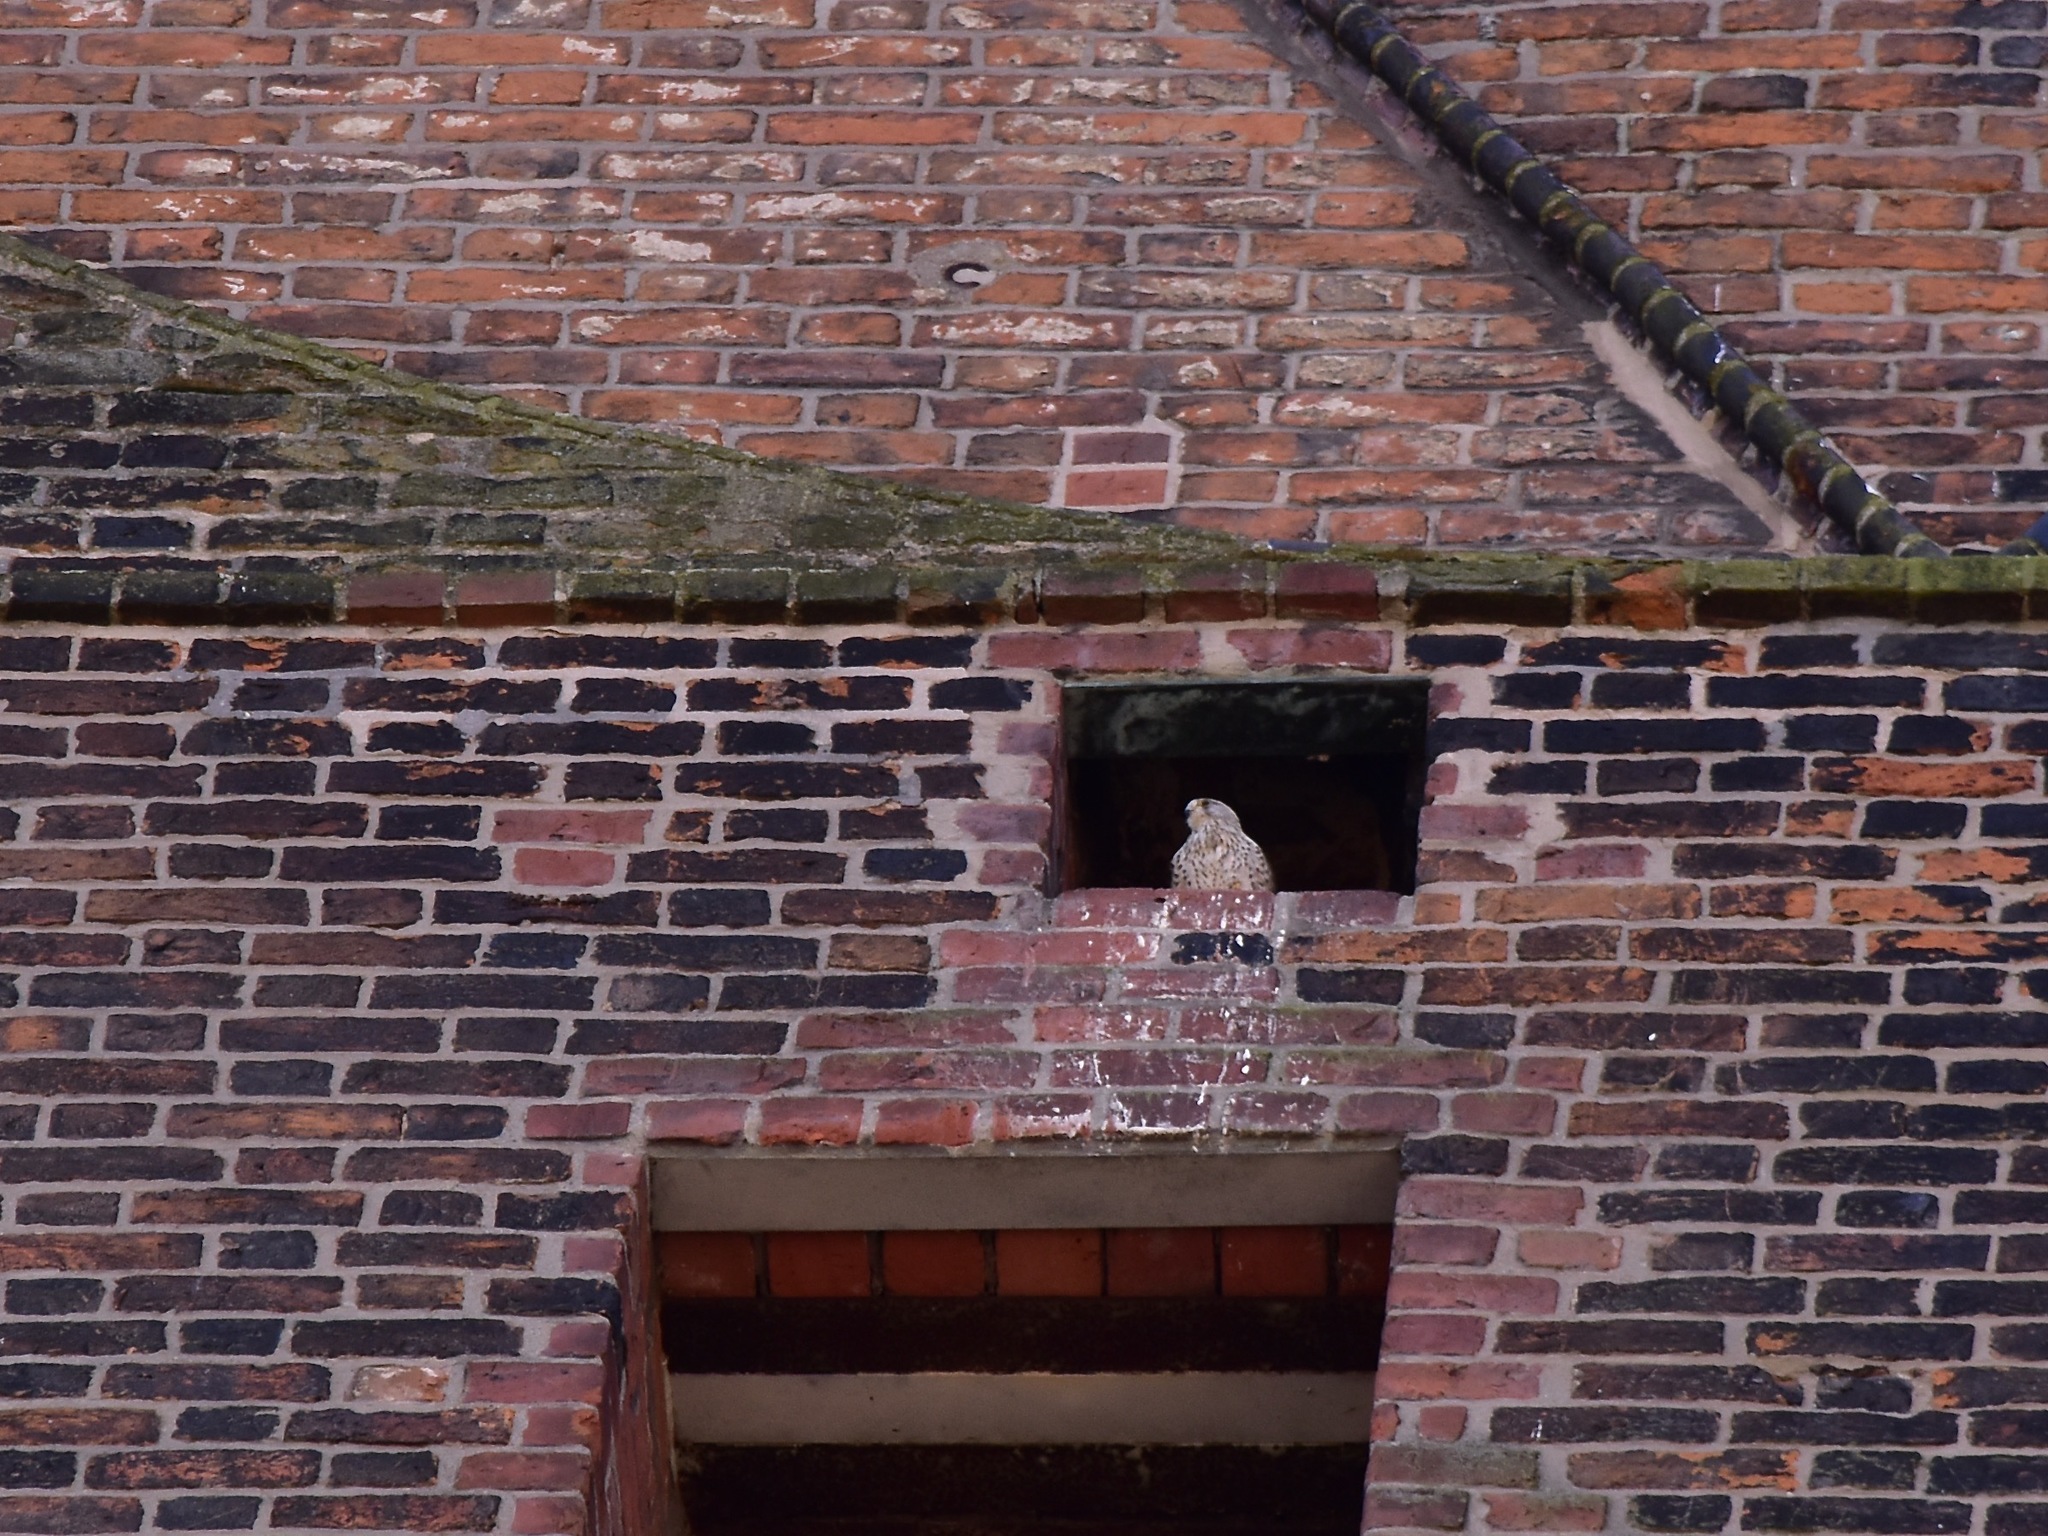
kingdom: Animalia
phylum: Chordata
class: Aves
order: Falconiformes
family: Falconidae
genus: Falco
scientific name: Falco tinnunculus
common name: Common kestrel
